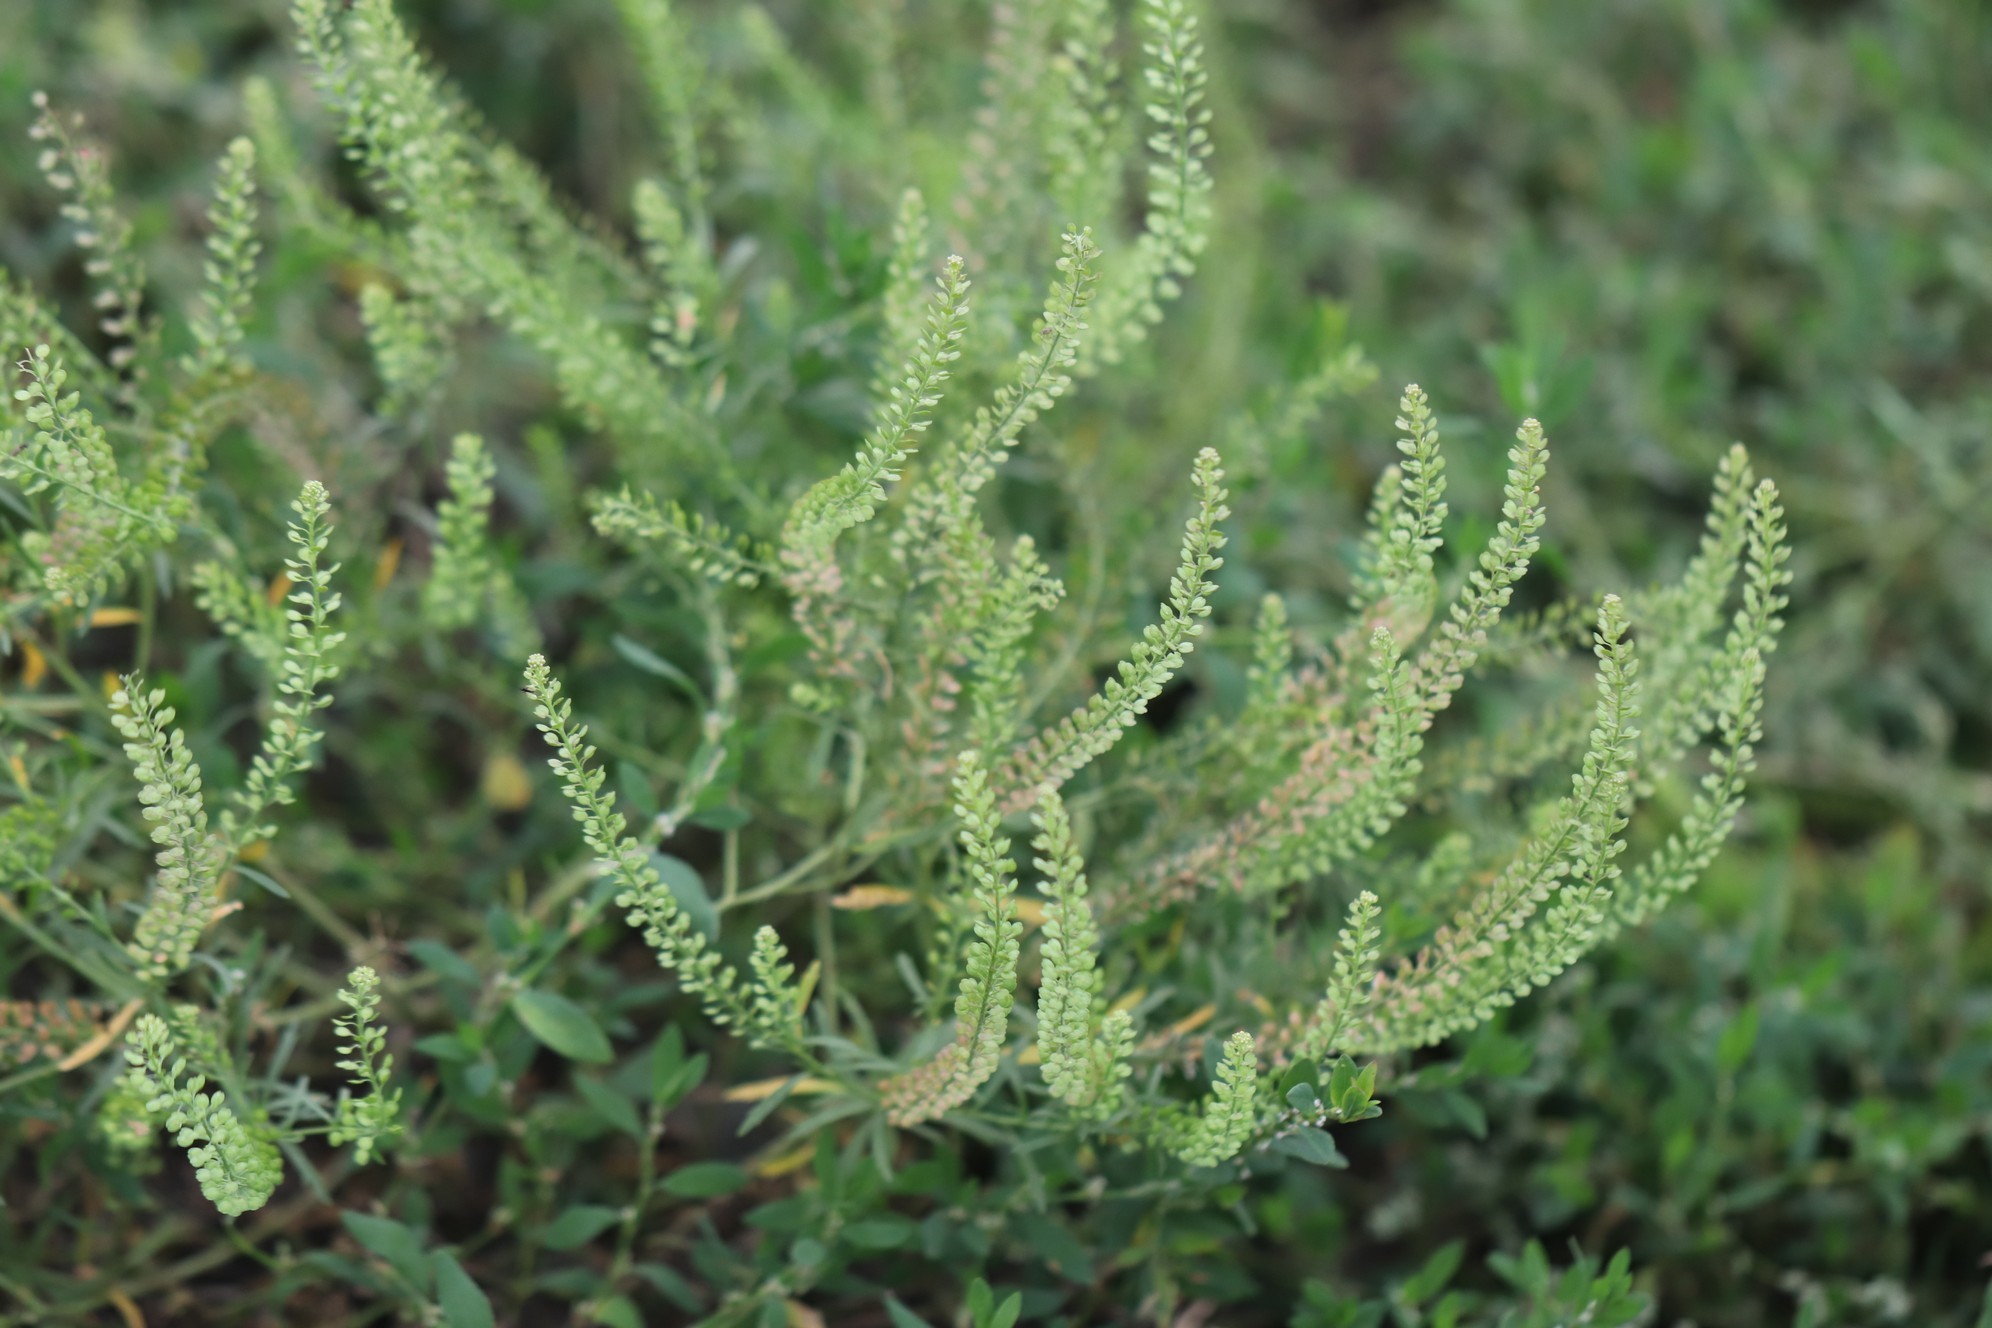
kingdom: Plantae
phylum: Tracheophyta
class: Magnoliopsida
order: Brassicales
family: Brassicaceae
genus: Lepidium
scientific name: Lepidium densiflorum
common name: Miner's pepperwort
